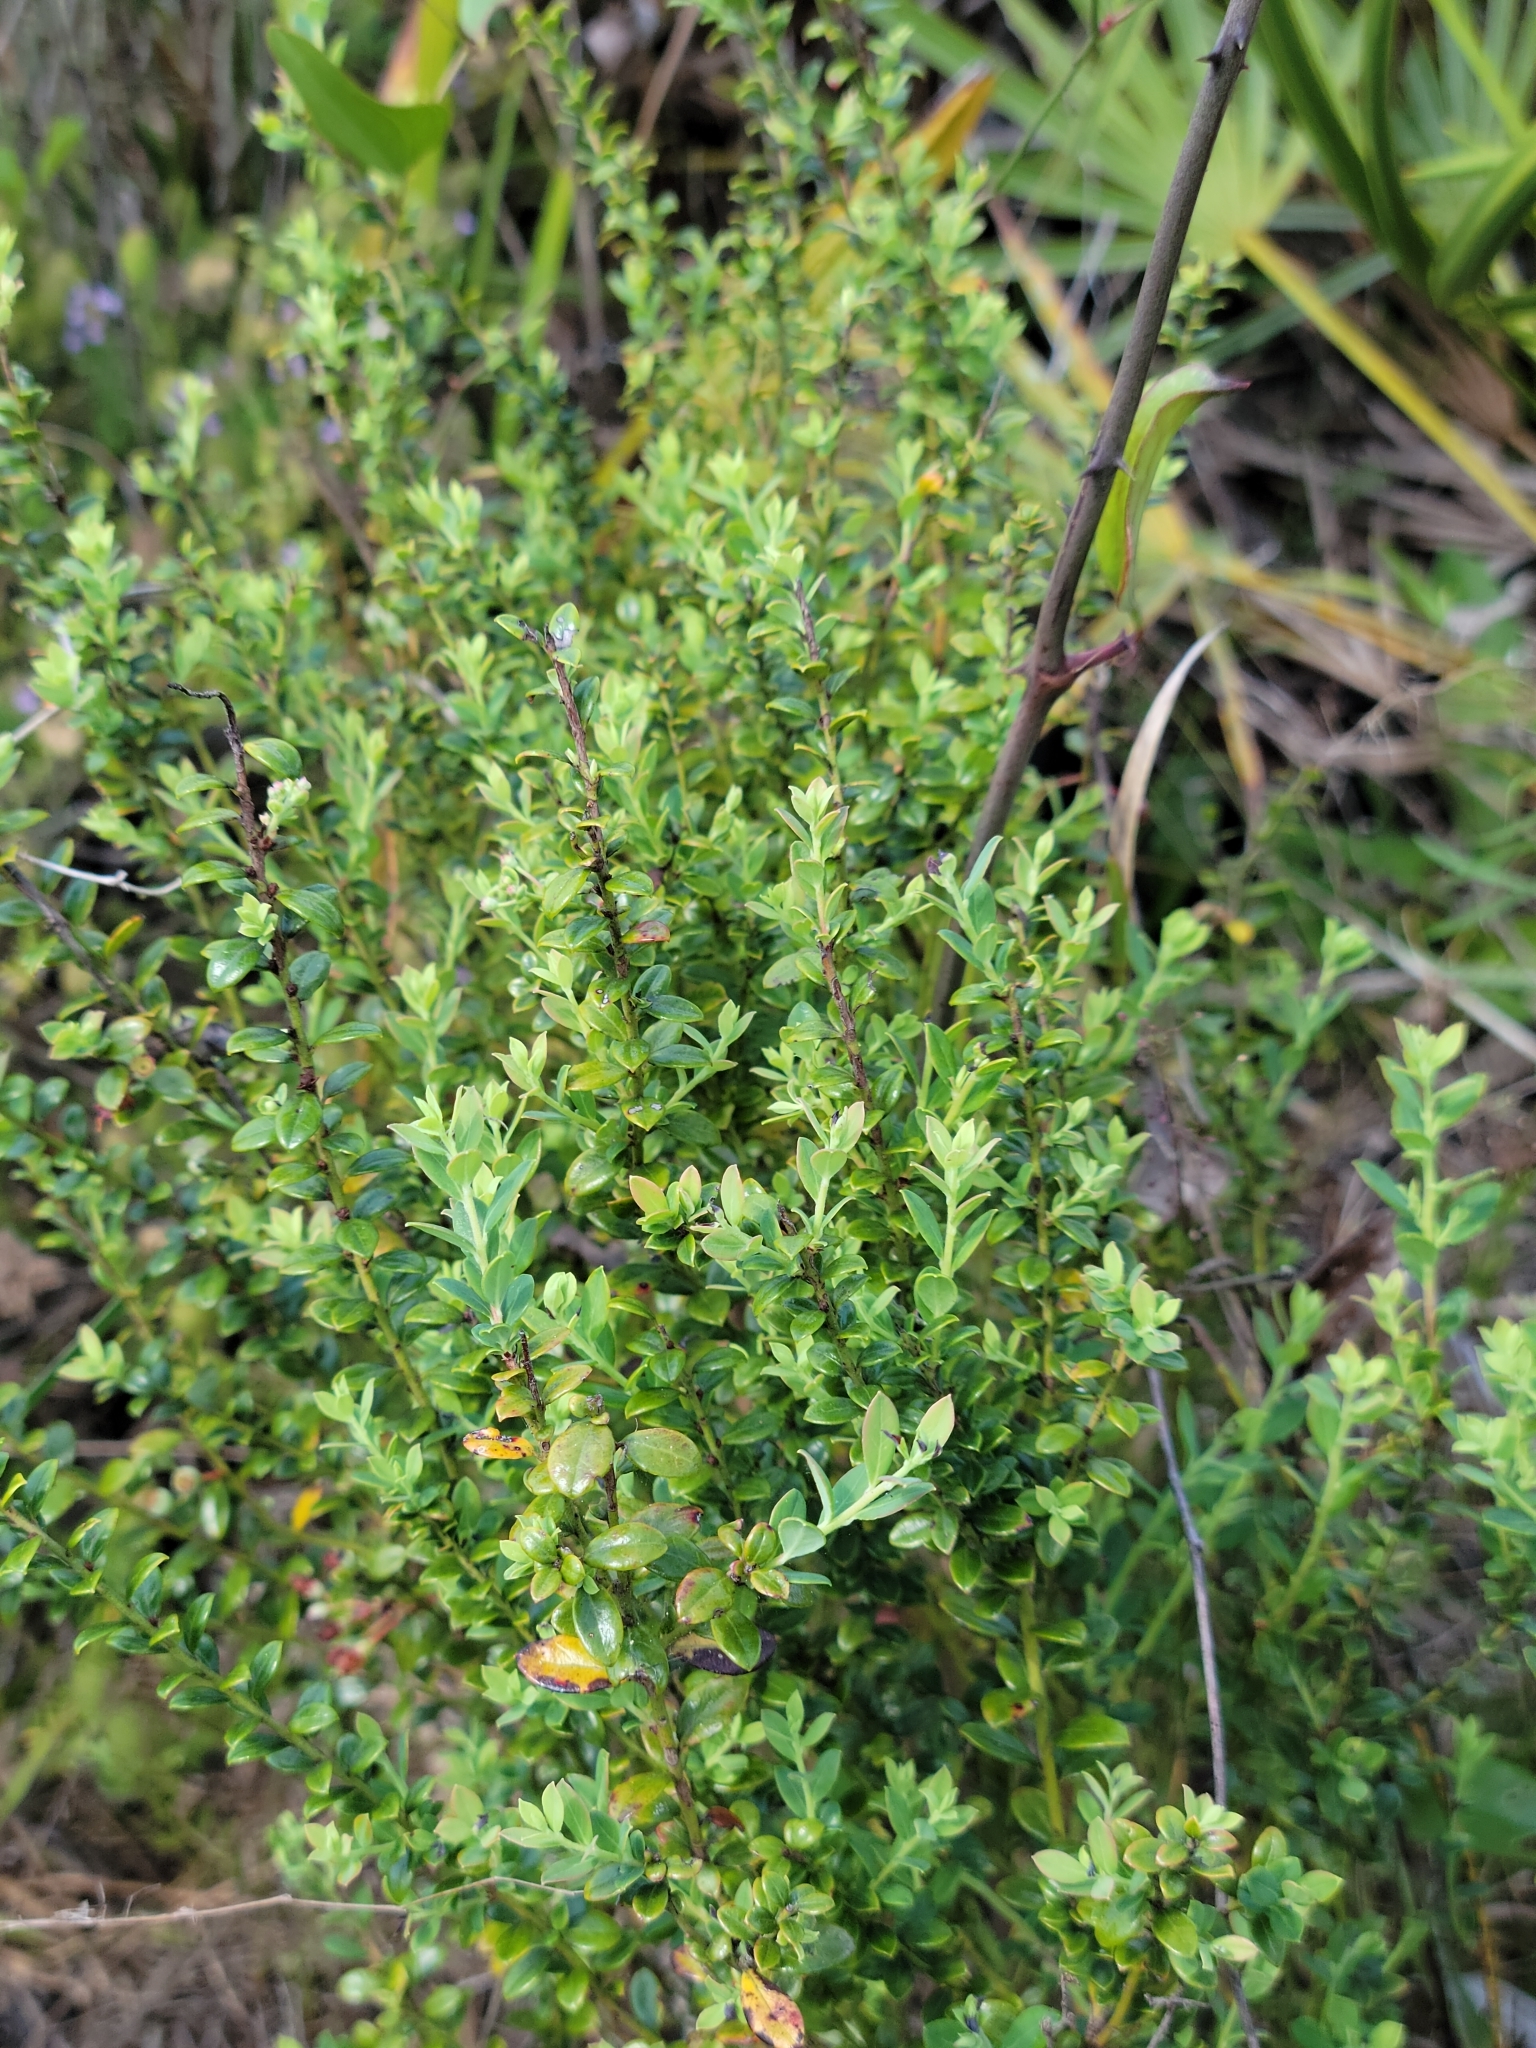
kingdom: Plantae
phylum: Tracheophyta
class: Magnoliopsida
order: Ericales
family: Ericaceae
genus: Vaccinium
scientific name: Vaccinium darrowii
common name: Darrow's blueberry
